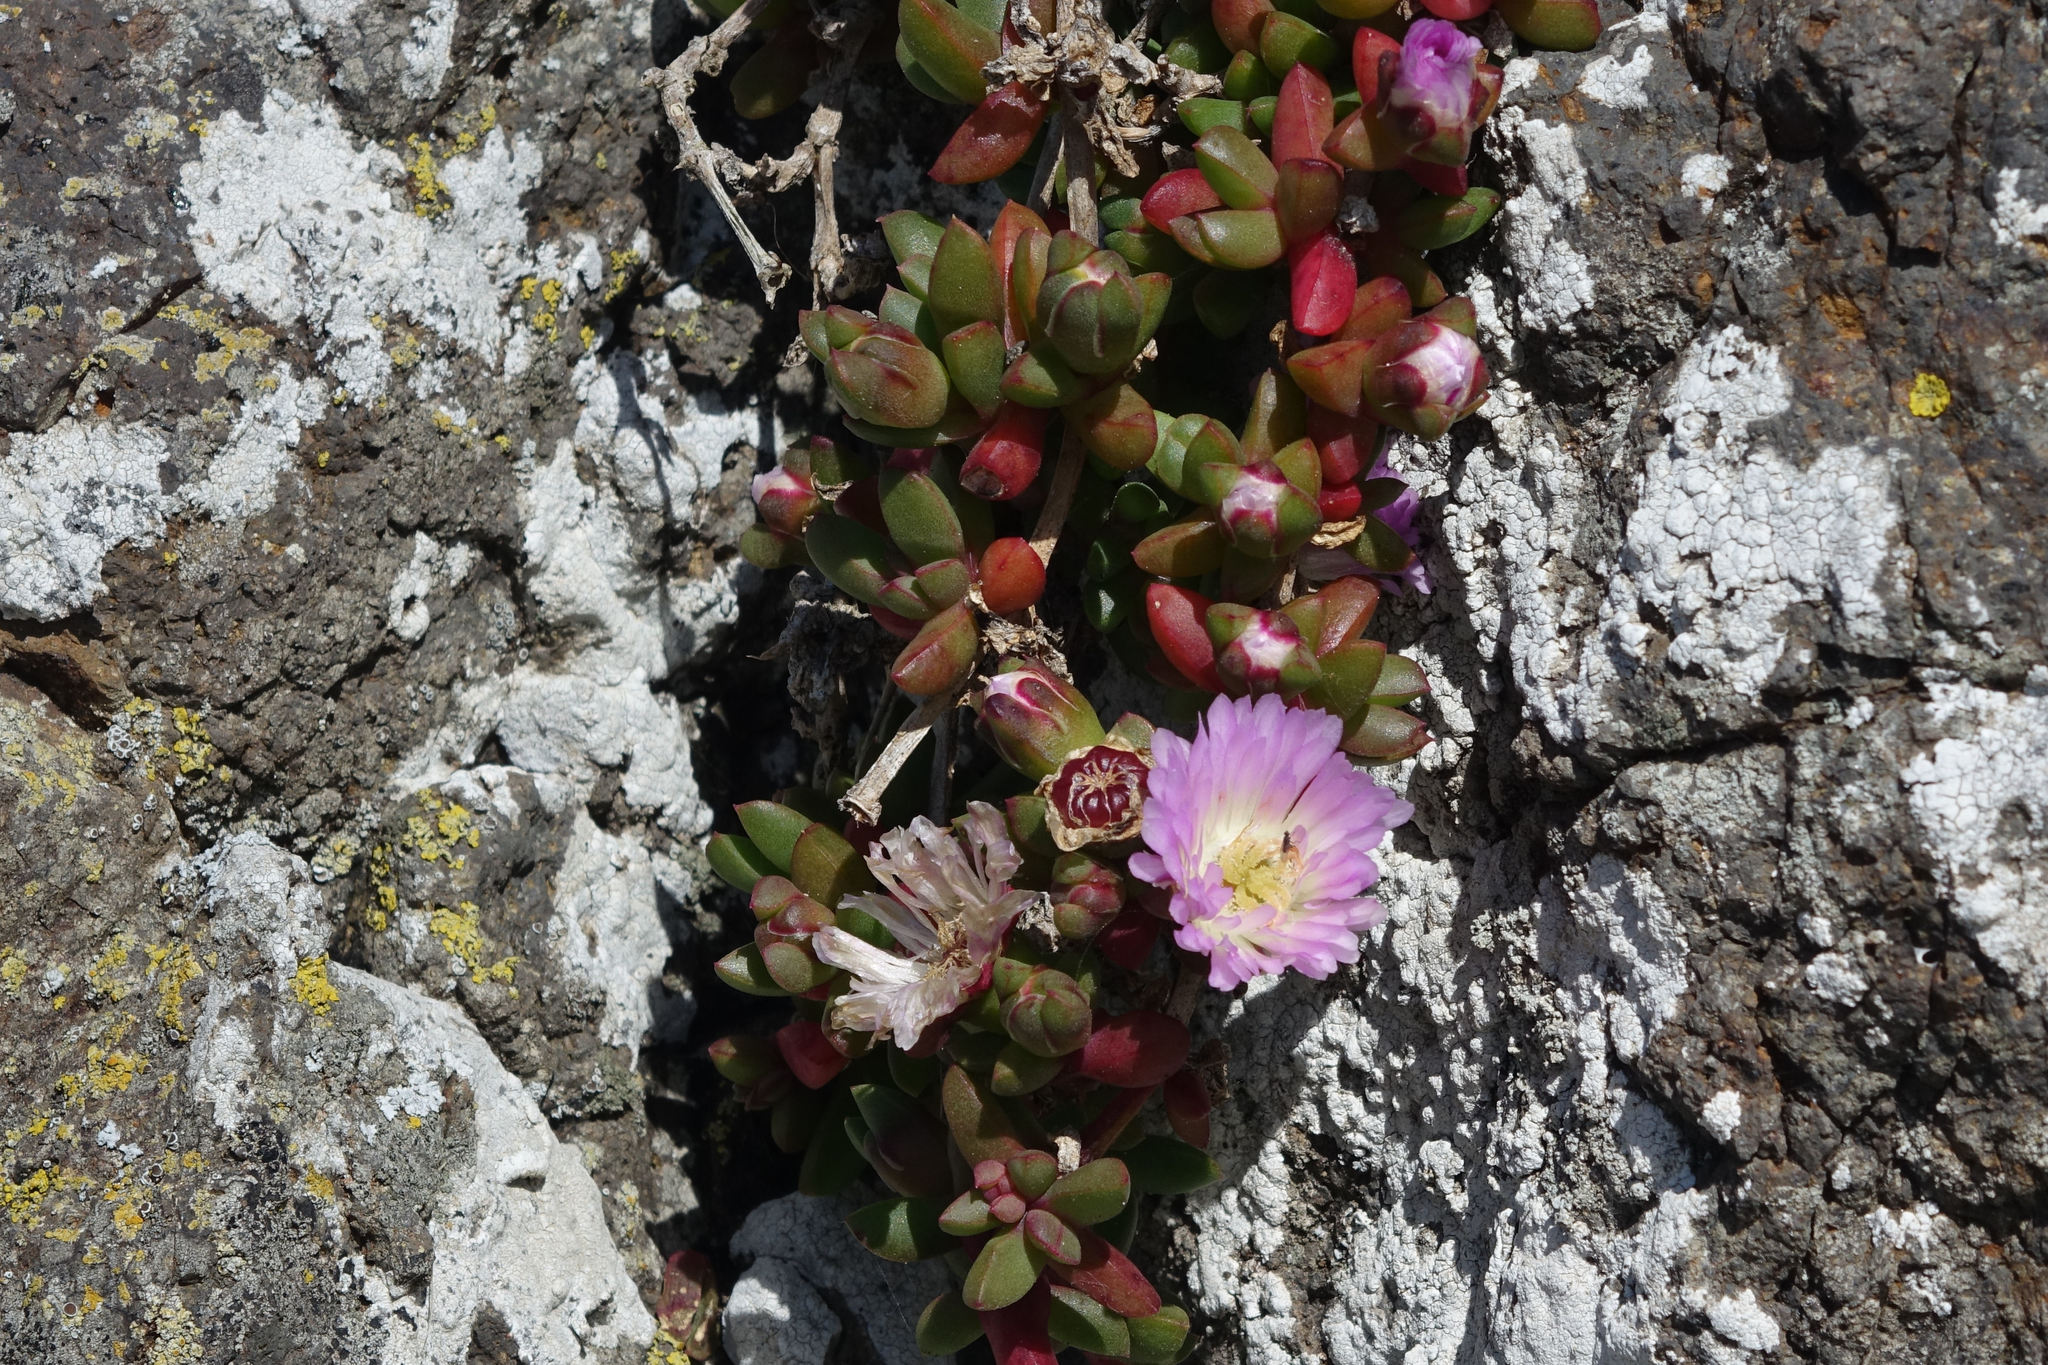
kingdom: Plantae
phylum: Tracheophyta
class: Magnoliopsida
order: Caryophyllales
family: Aizoaceae
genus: Disphyma
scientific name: Disphyma australe
